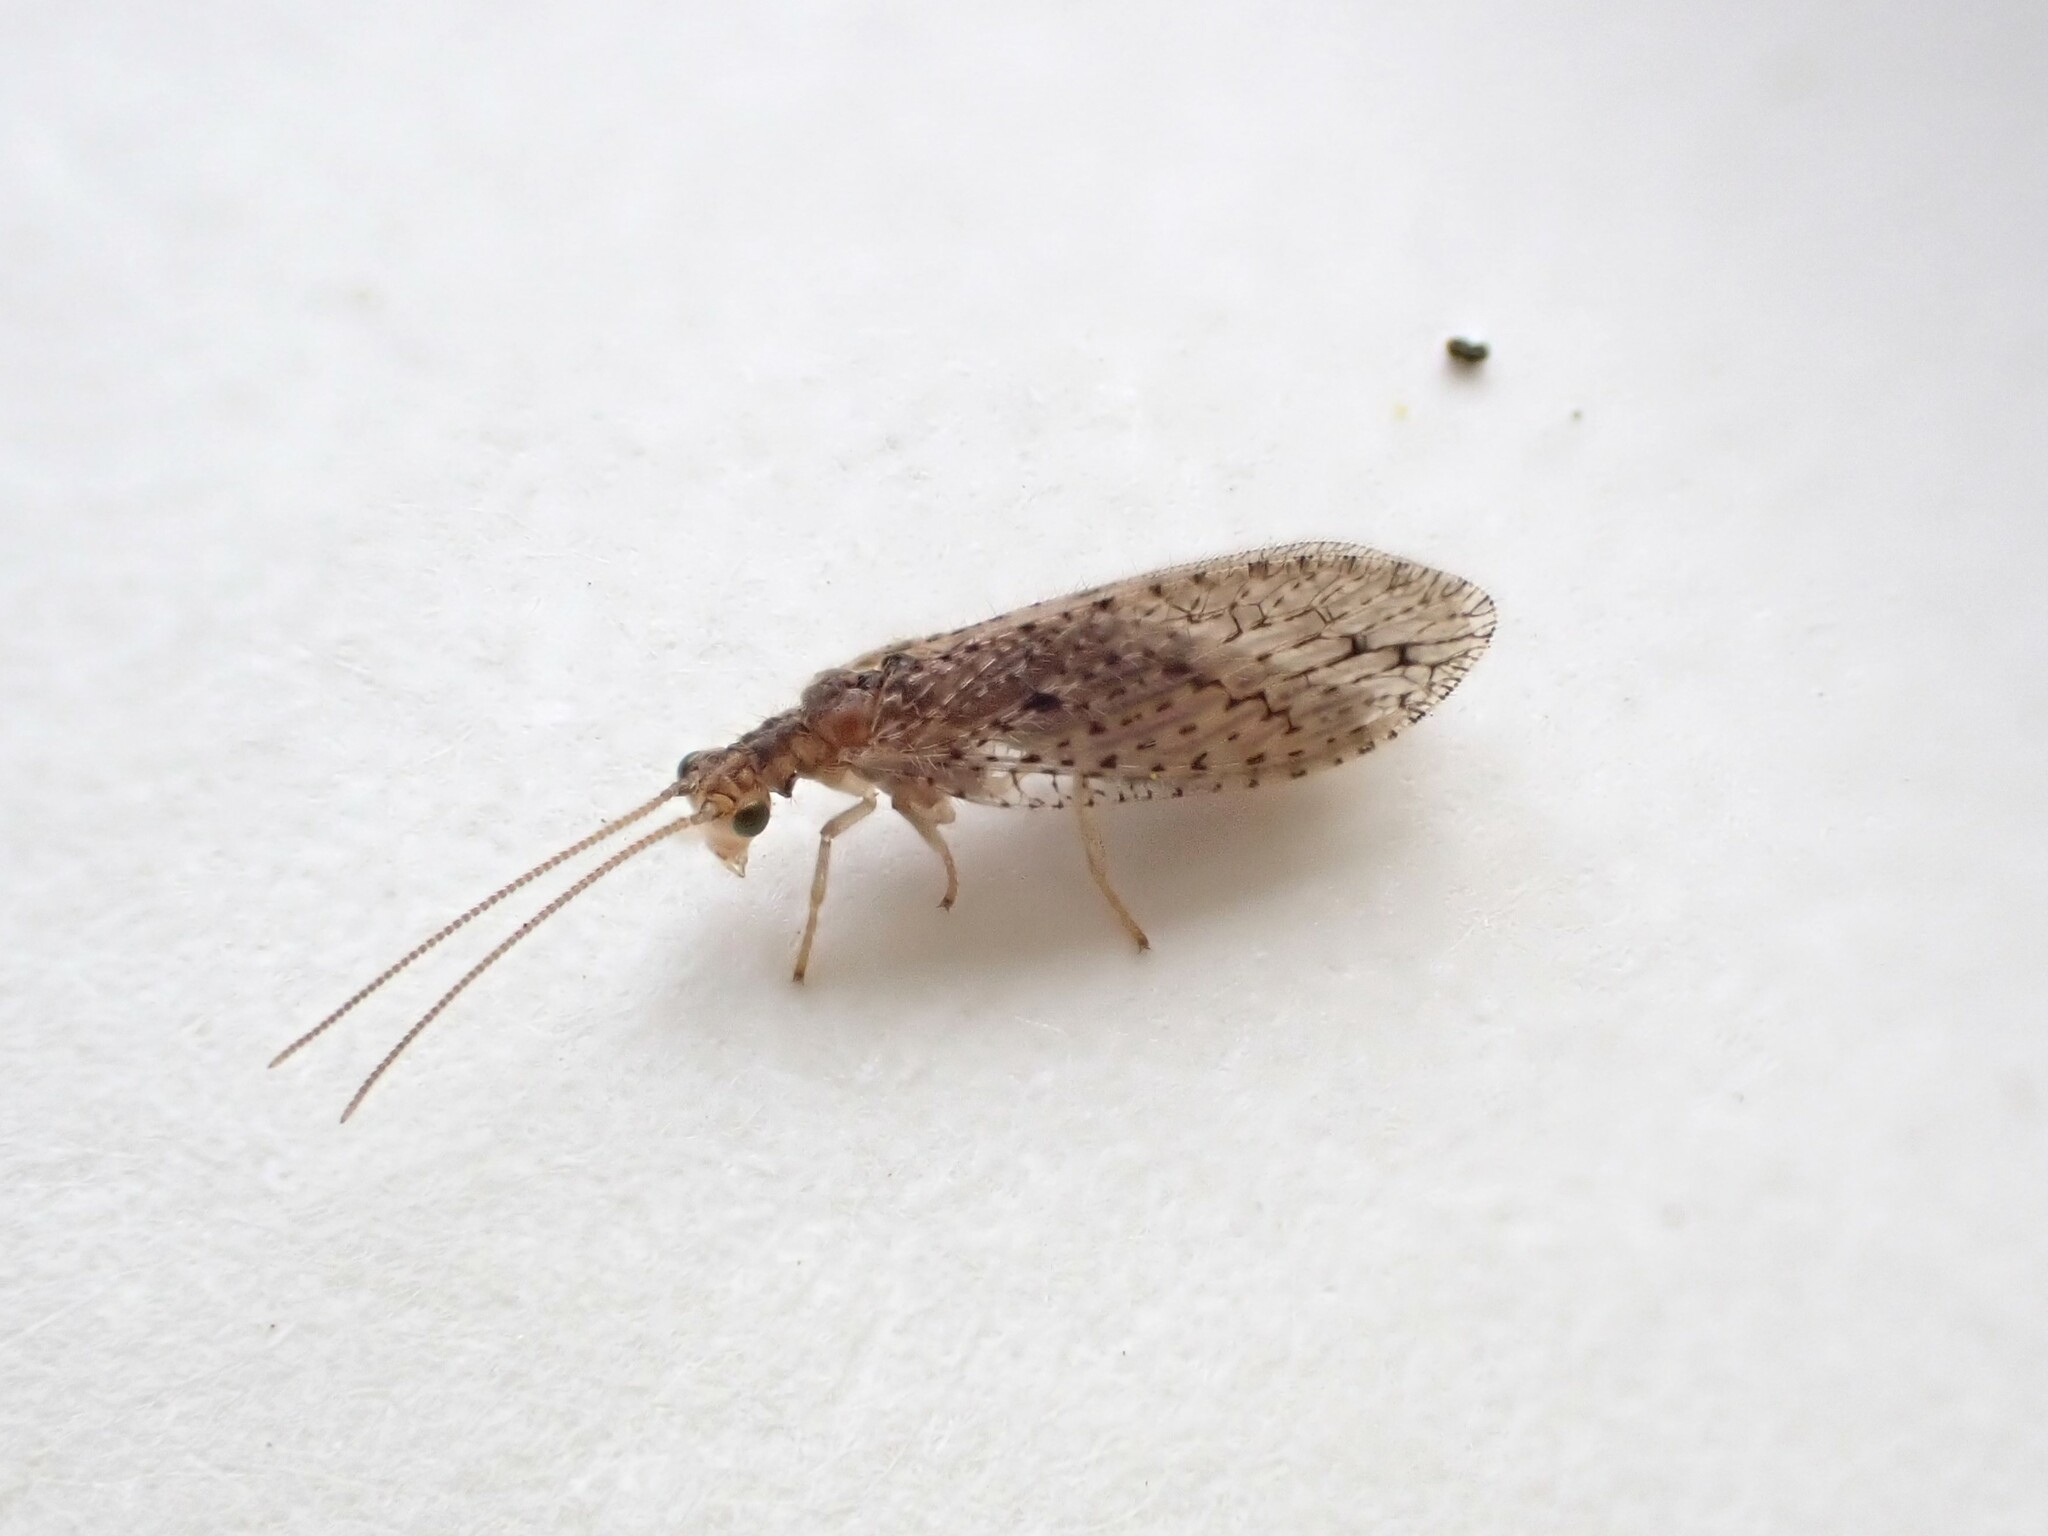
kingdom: Animalia
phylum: Arthropoda
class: Insecta
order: Neuroptera
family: Hemerobiidae
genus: Micromus
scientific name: Micromus tasmaniae
